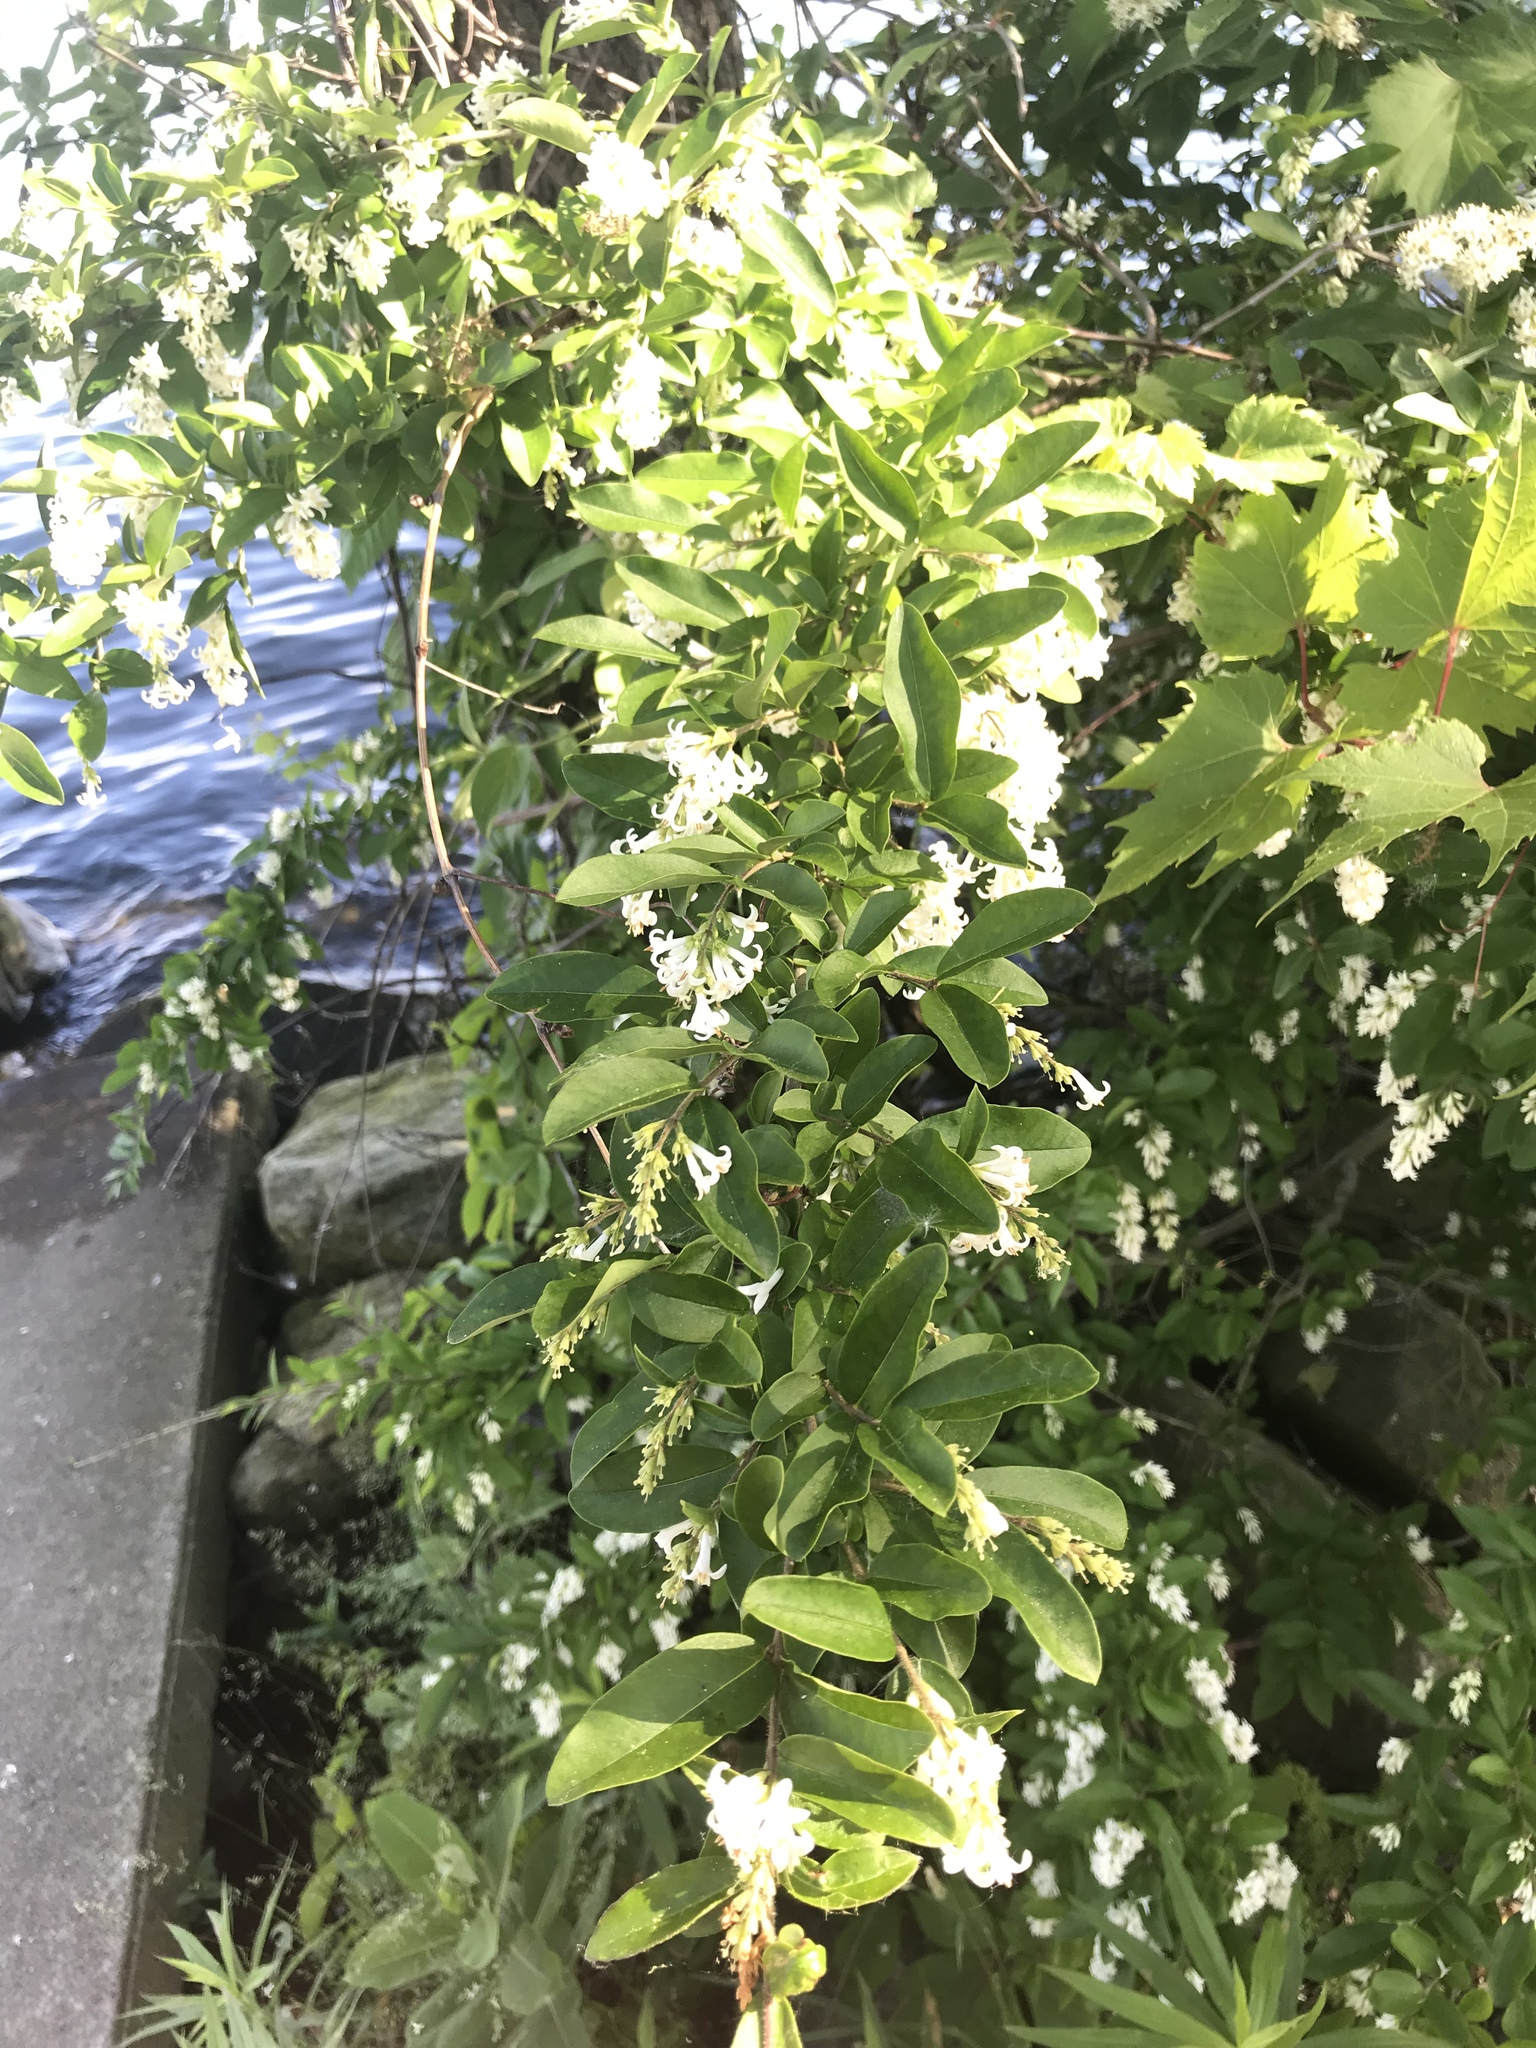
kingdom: Plantae
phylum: Tracheophyta
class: Magnoliopsida
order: Lamiales
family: Oleaceae
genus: Ligustrum
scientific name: Ligustrum obtusifolium
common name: Border privet
